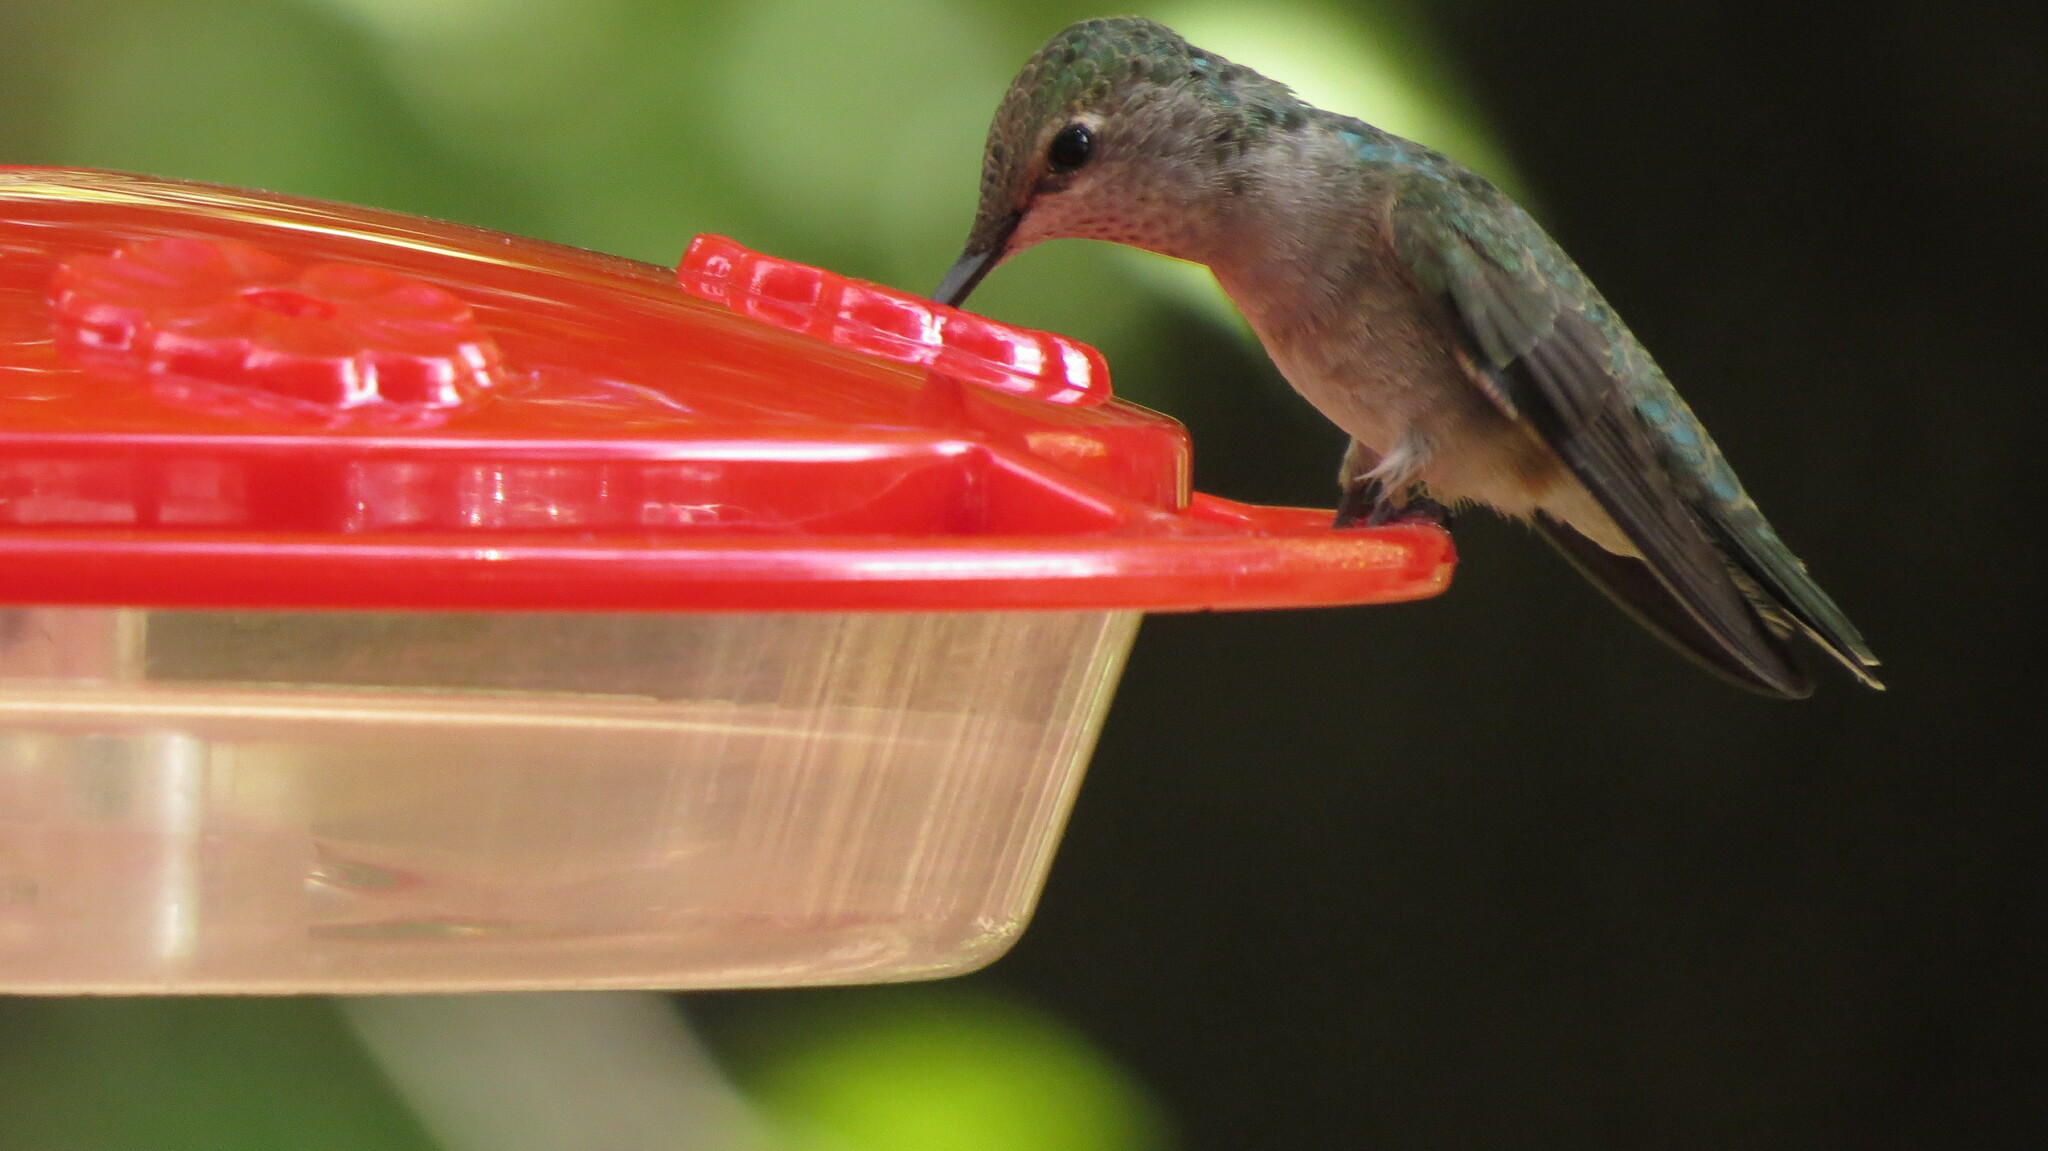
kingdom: Animalia
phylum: Chordata
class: Aves
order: Apodiformes
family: Trochilidae
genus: Archilochus
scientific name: Archilochus alexandri
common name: Black-chinned hummingbird
